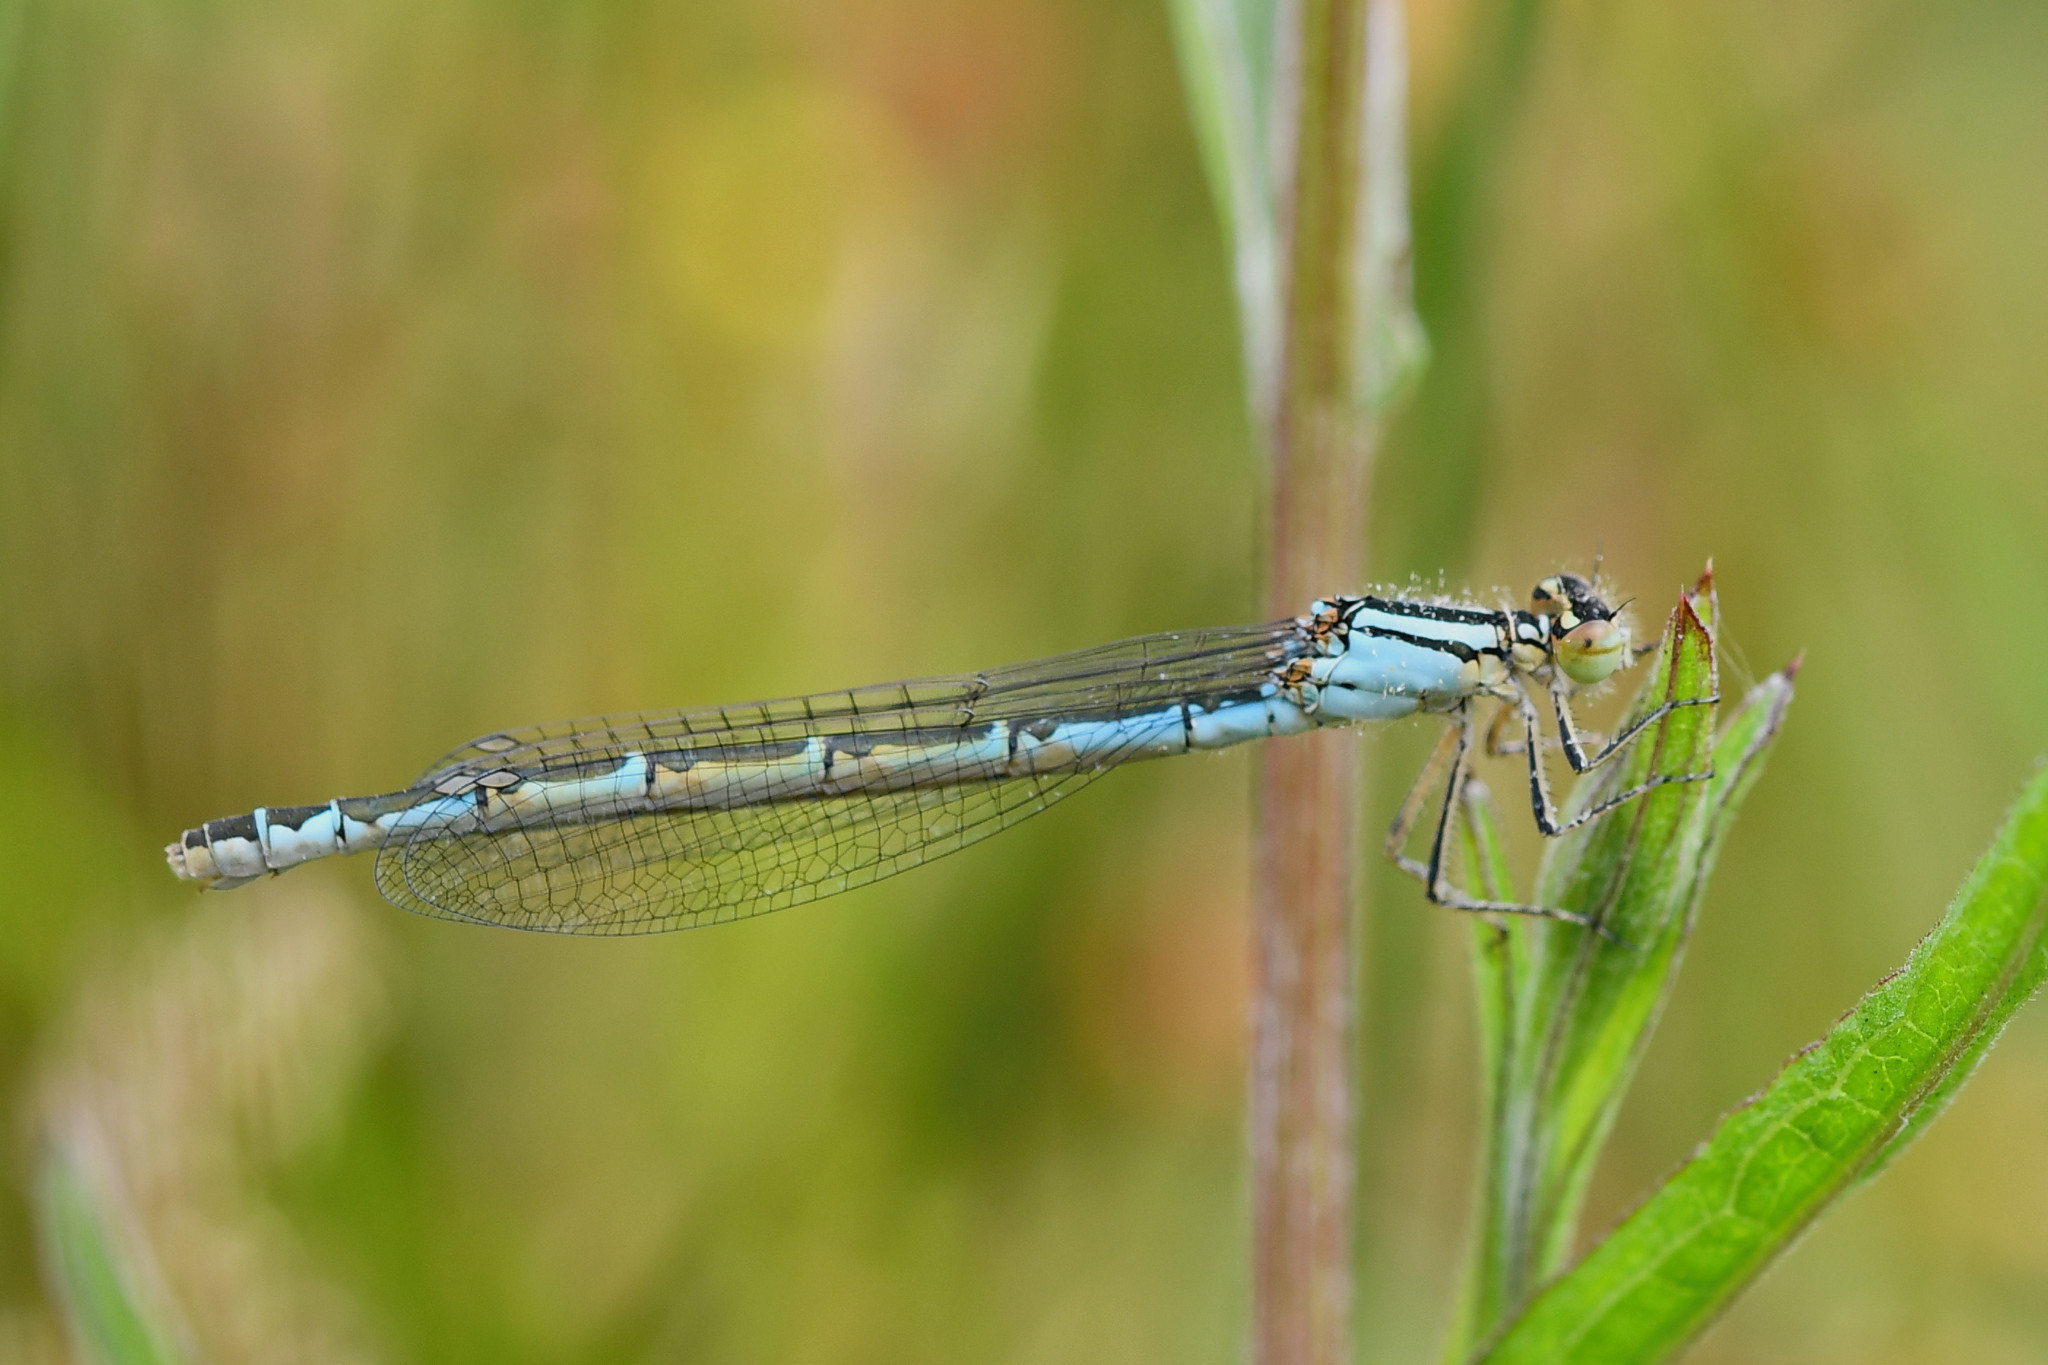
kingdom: Animalia
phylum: Arthropoda
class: Insecta
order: Odonata
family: Coenagrionidae
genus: Enallagma
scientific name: Enallagma cyathigerum
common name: Common blue damselfly
